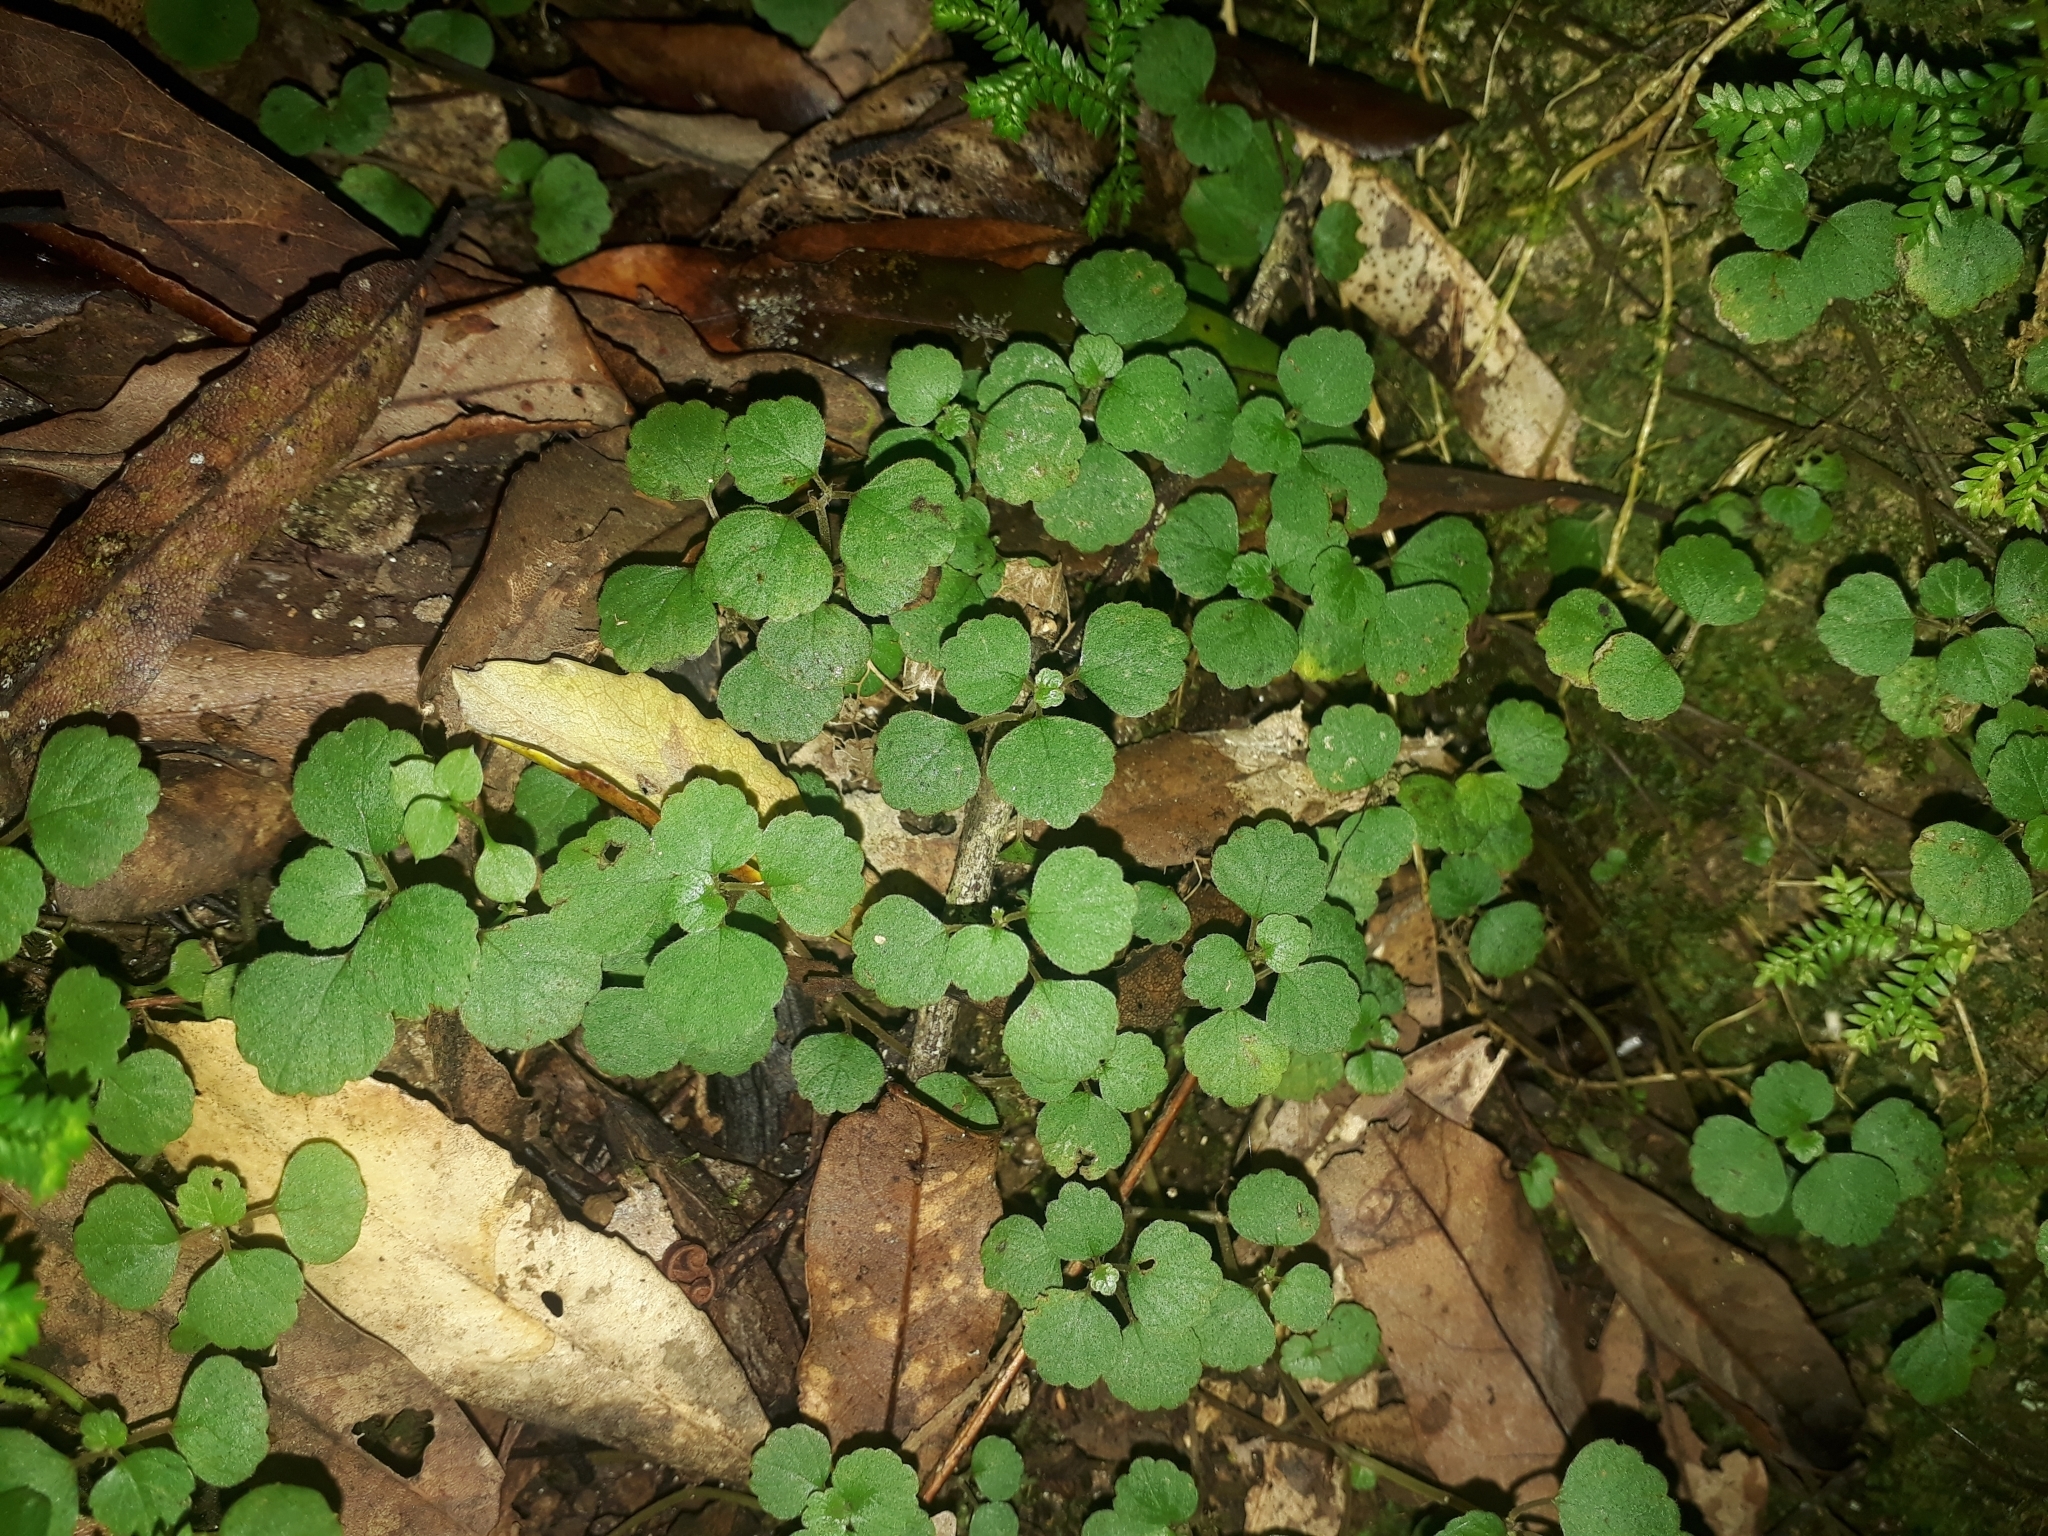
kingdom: Plantae
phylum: Tracheophyta
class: Magnoliopsida
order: Rosales
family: Urticaceae
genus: Australina
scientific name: Australina pusilla
